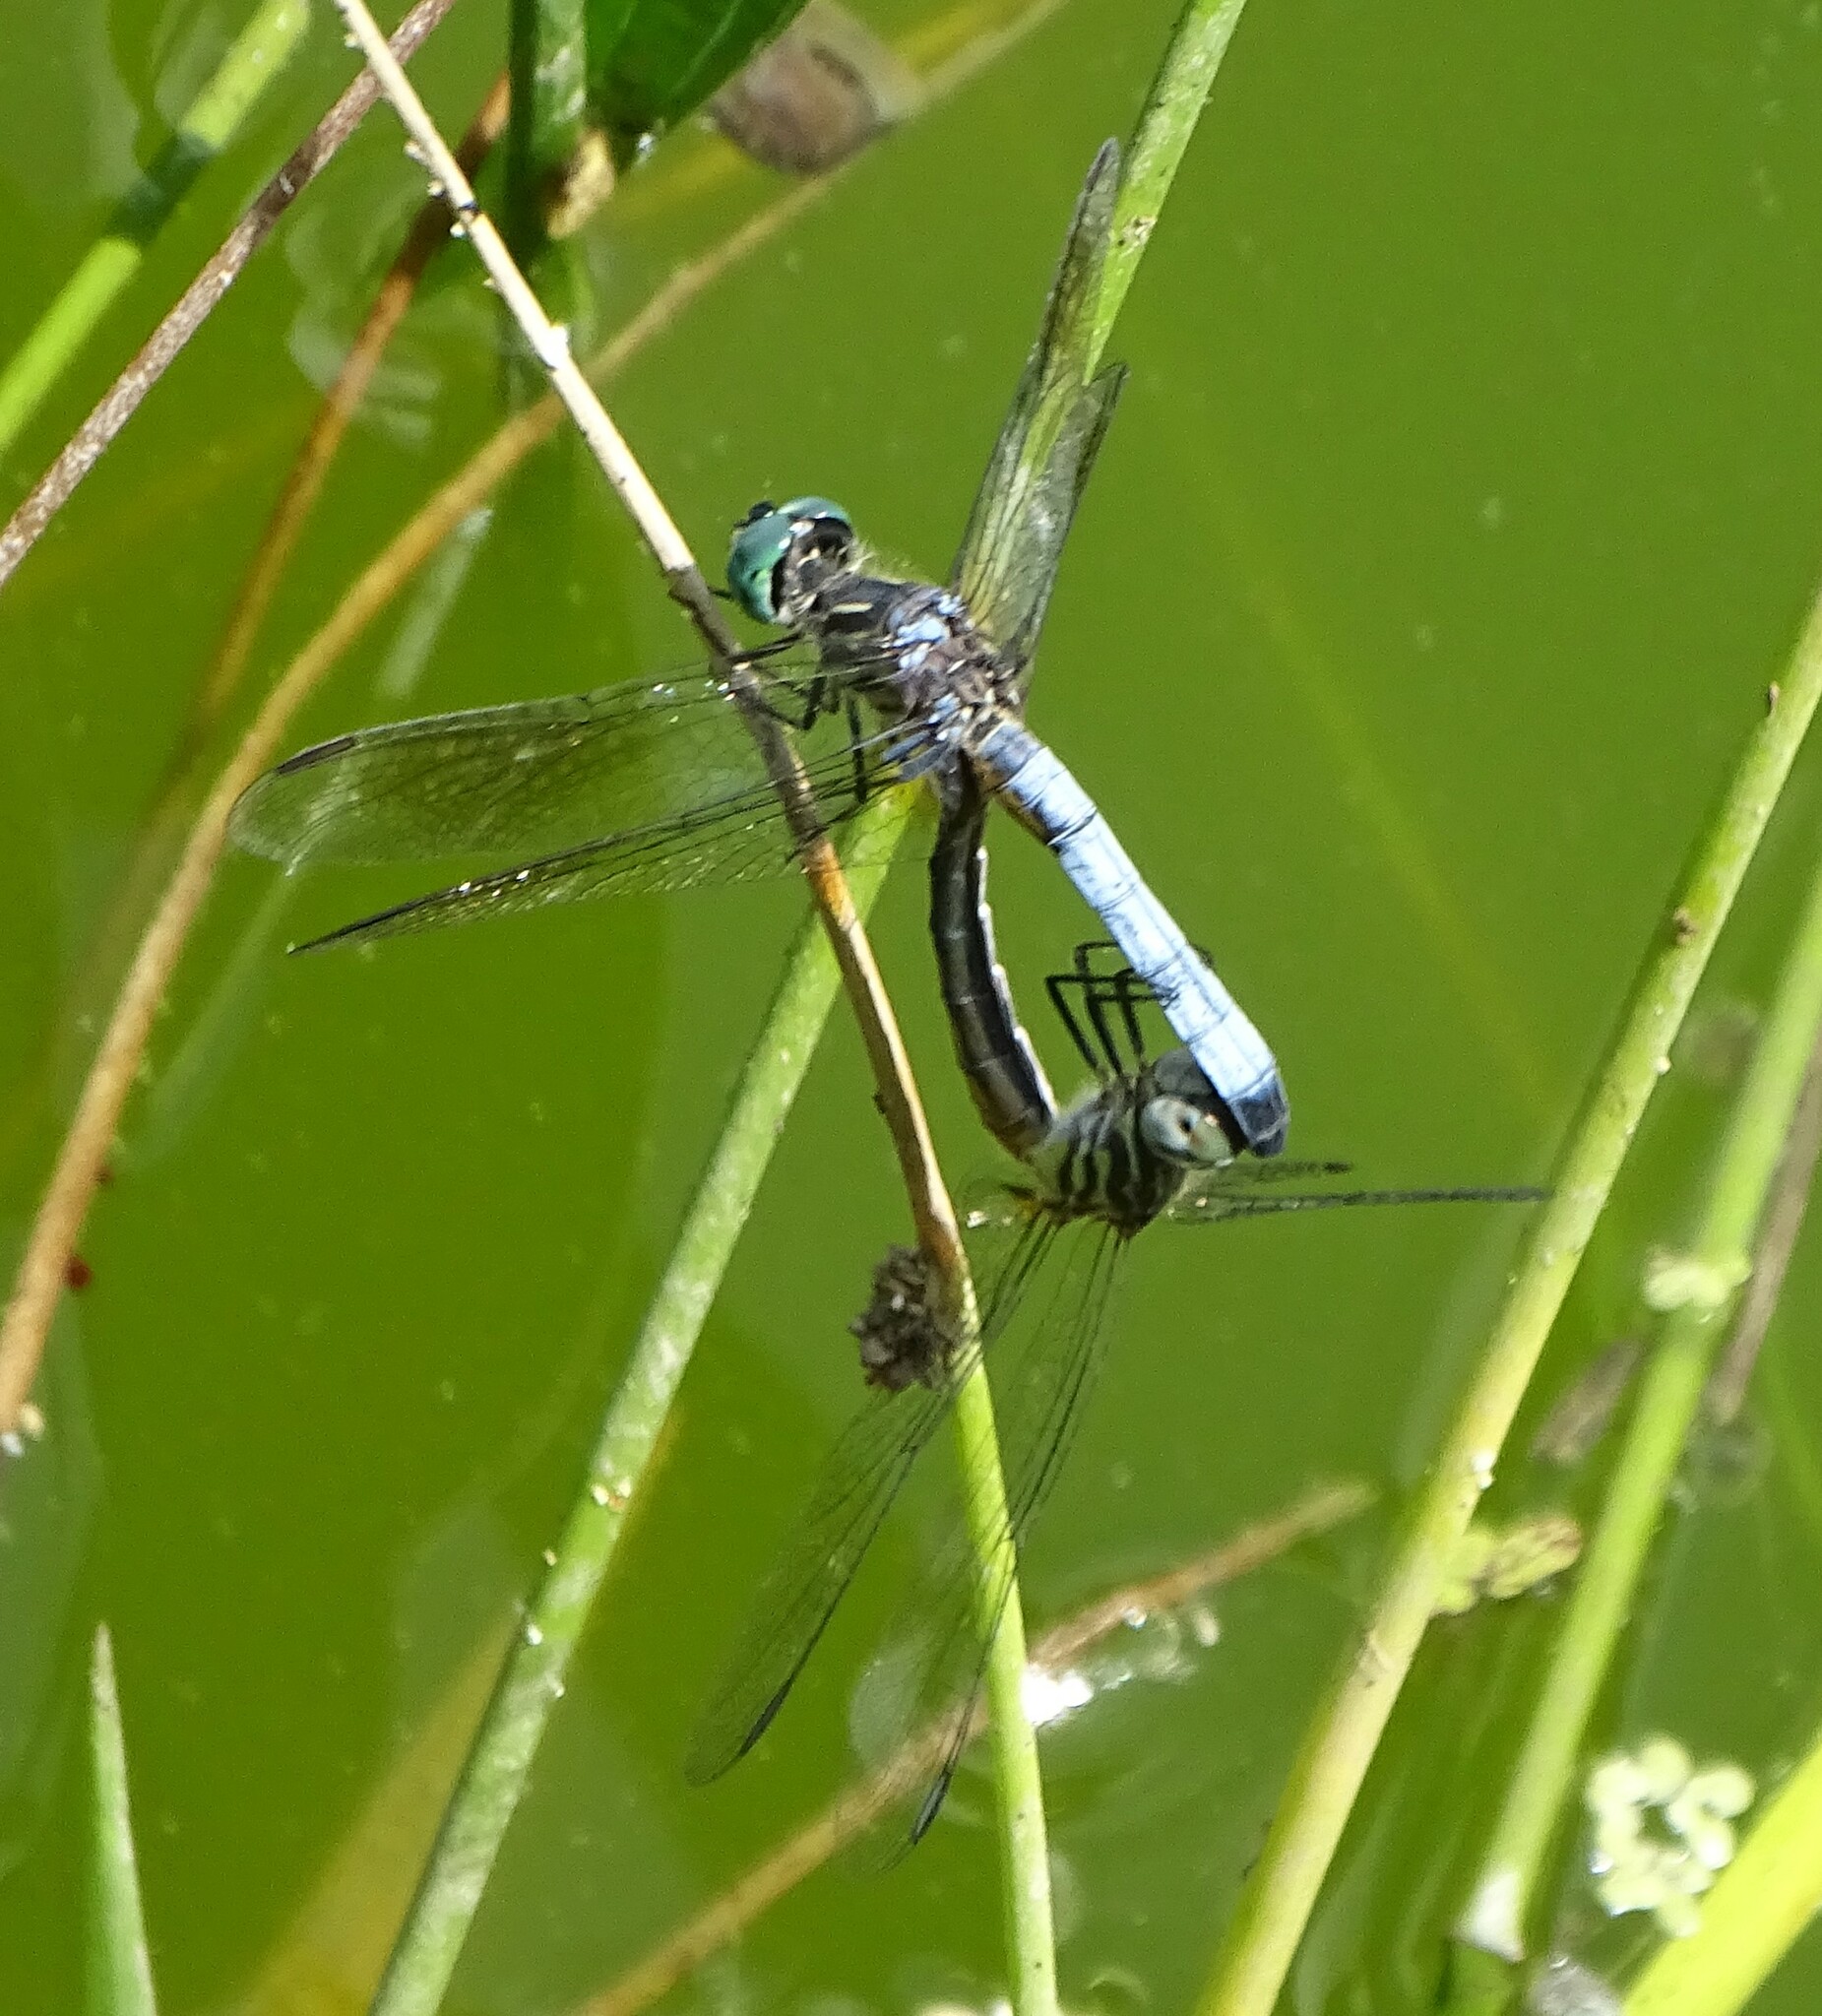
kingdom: Animalia
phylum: Arthropoda
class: Insecta
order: Odonata
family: Libellulidae
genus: Pachydiplax
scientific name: Pachydiplax longipennis
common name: Blue dasher
